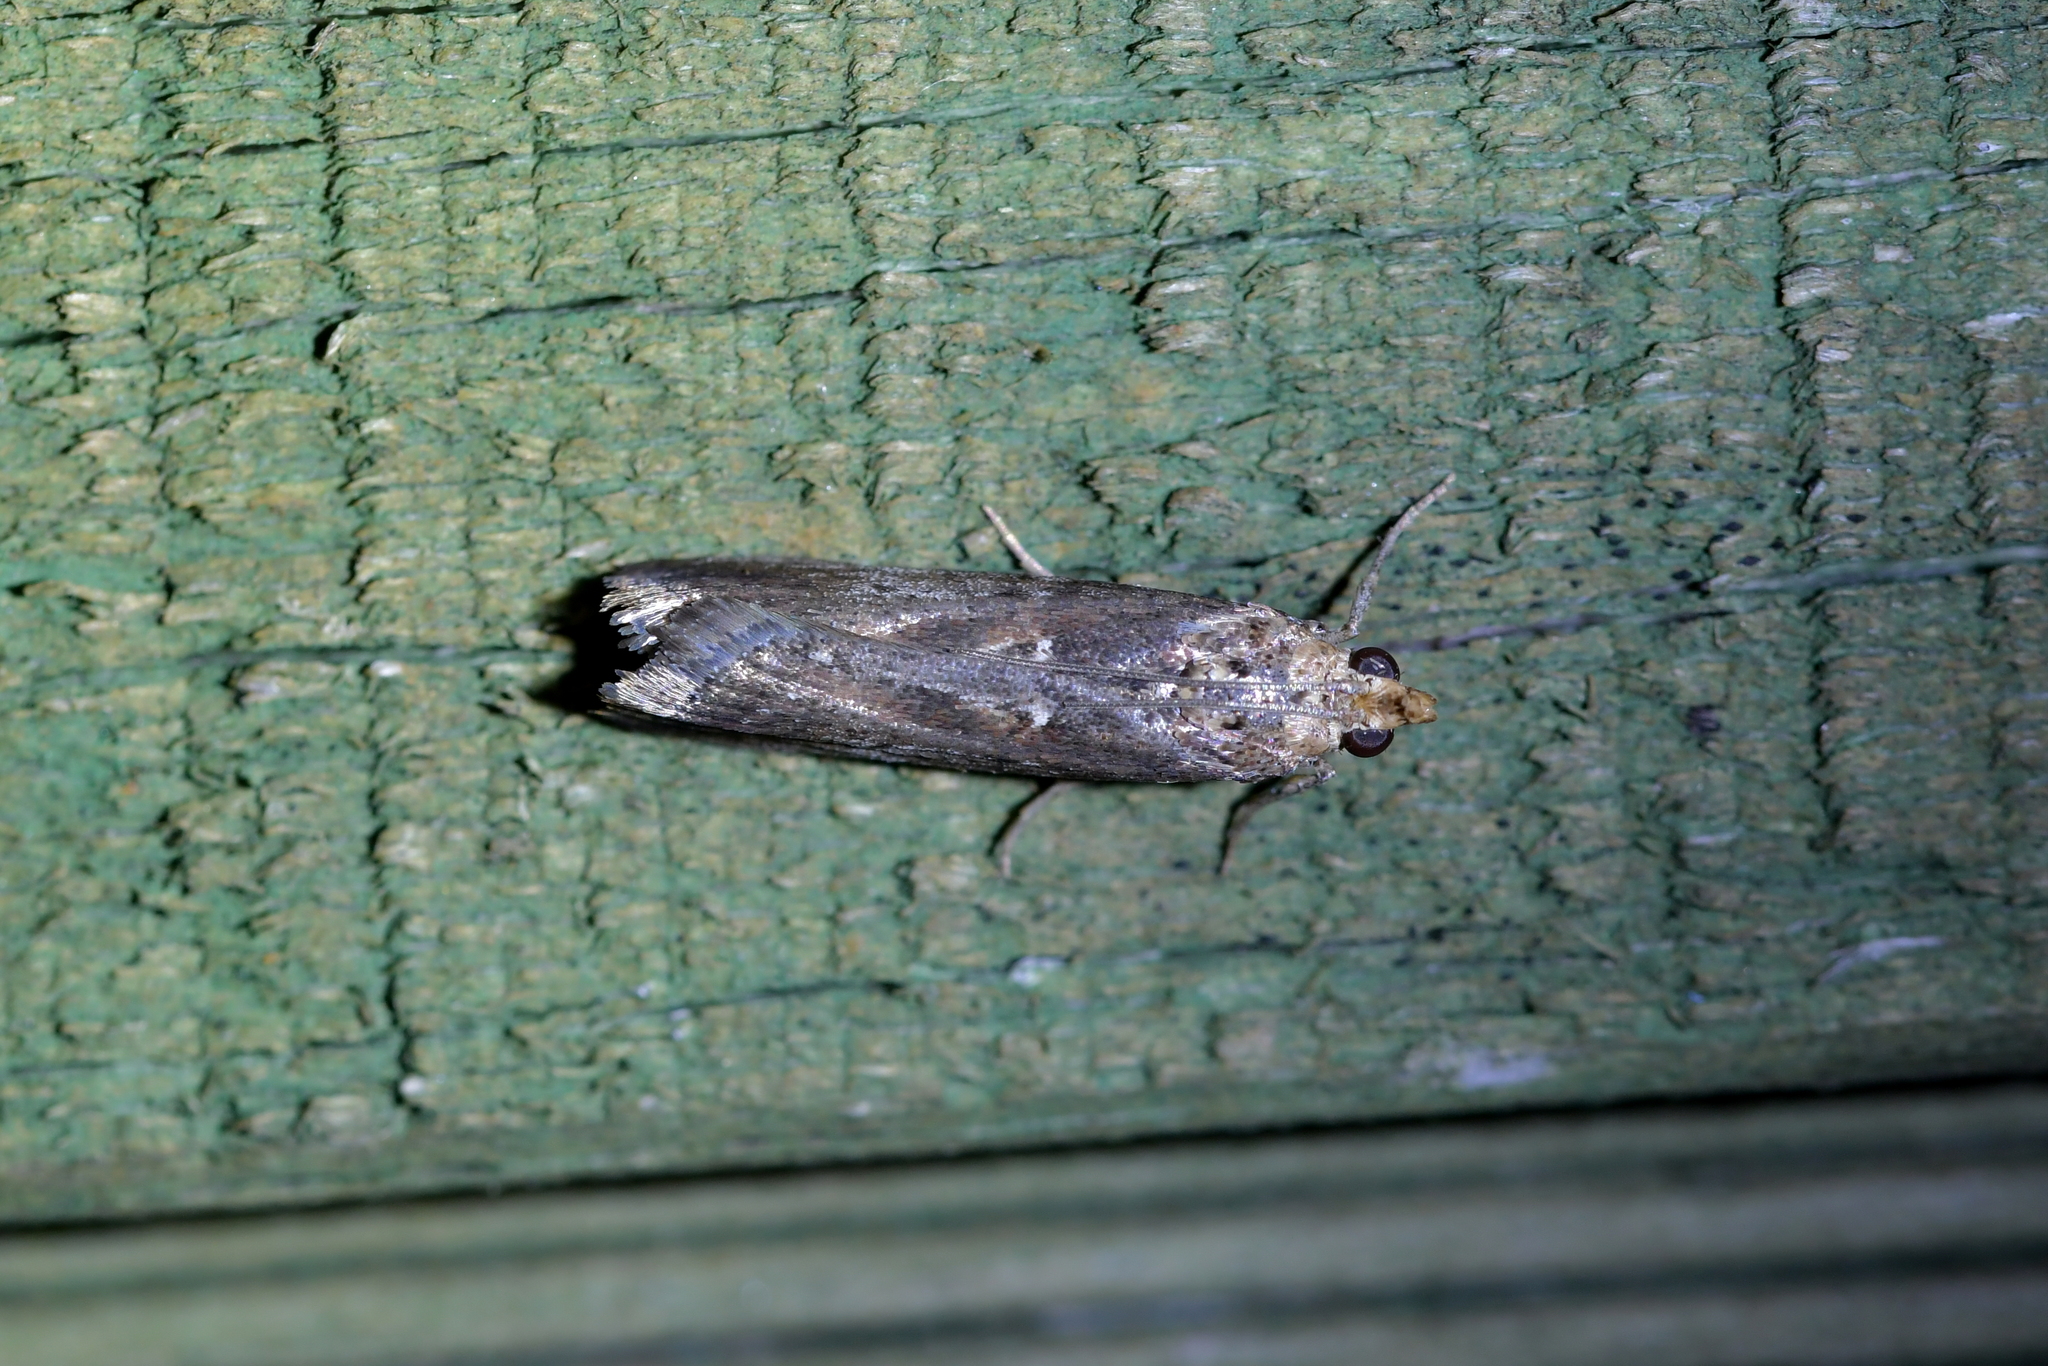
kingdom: Animalia
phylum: Arthropoda
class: Insecta
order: Lepidoptera
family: Pyralidae
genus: Morosaphycita
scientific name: Morosaphycita oculiferella
